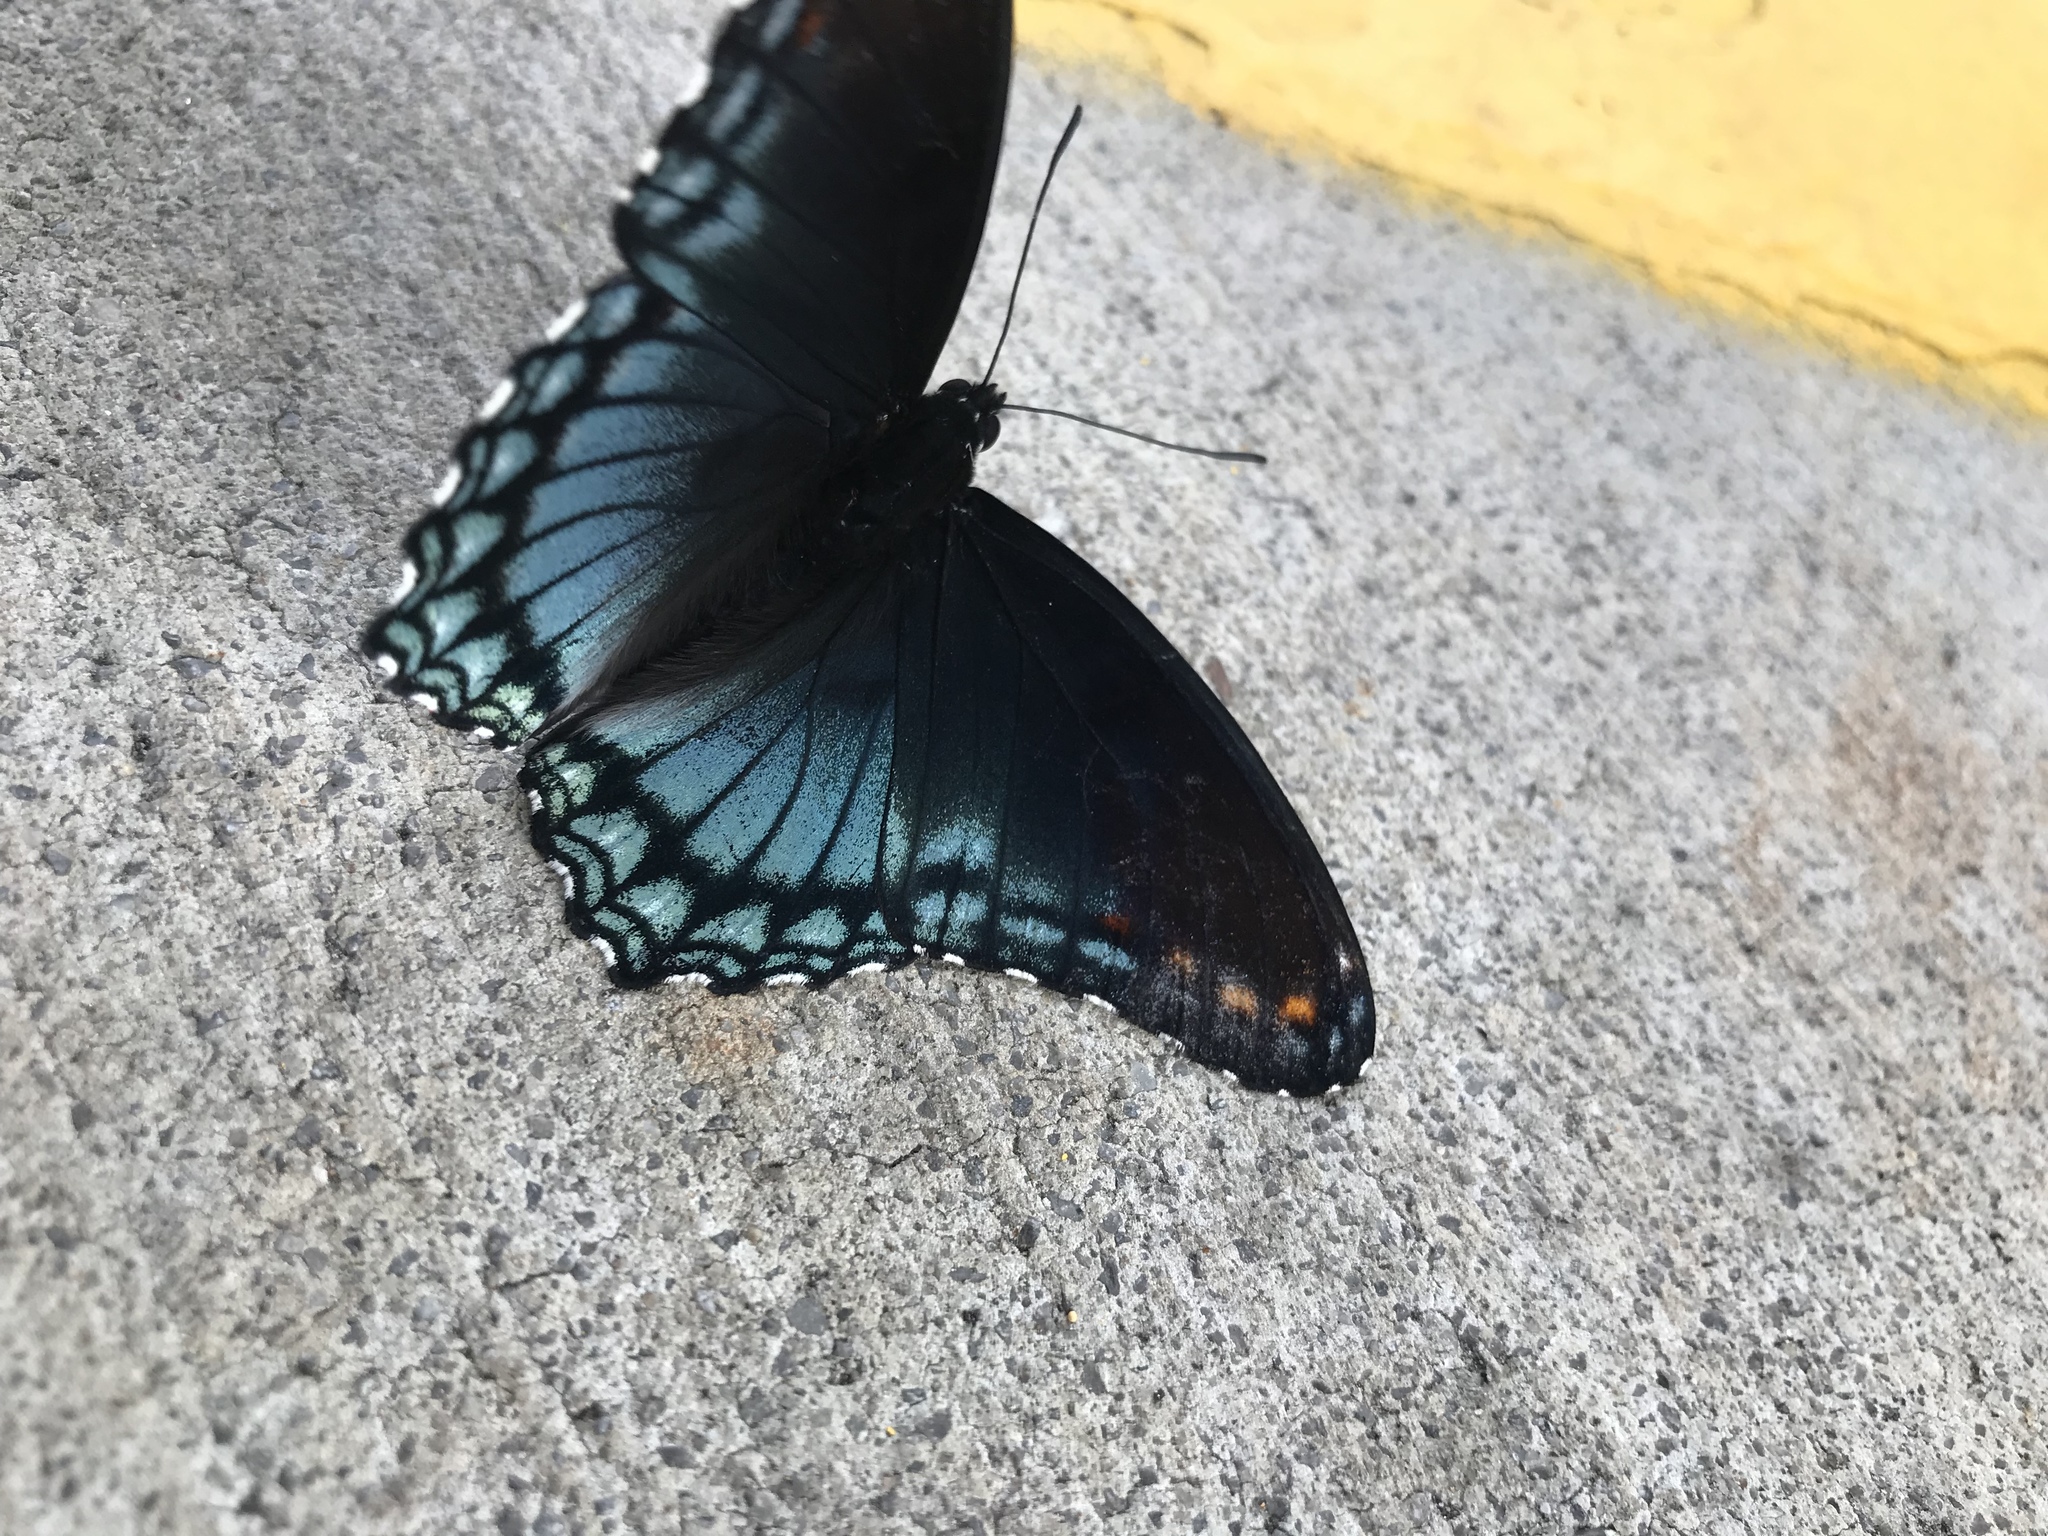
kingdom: Animalia
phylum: Arthropoda
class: Insecta
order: Lepidoptera
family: Nymphalidae
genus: Limenitis
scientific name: Limenitis astyanax
